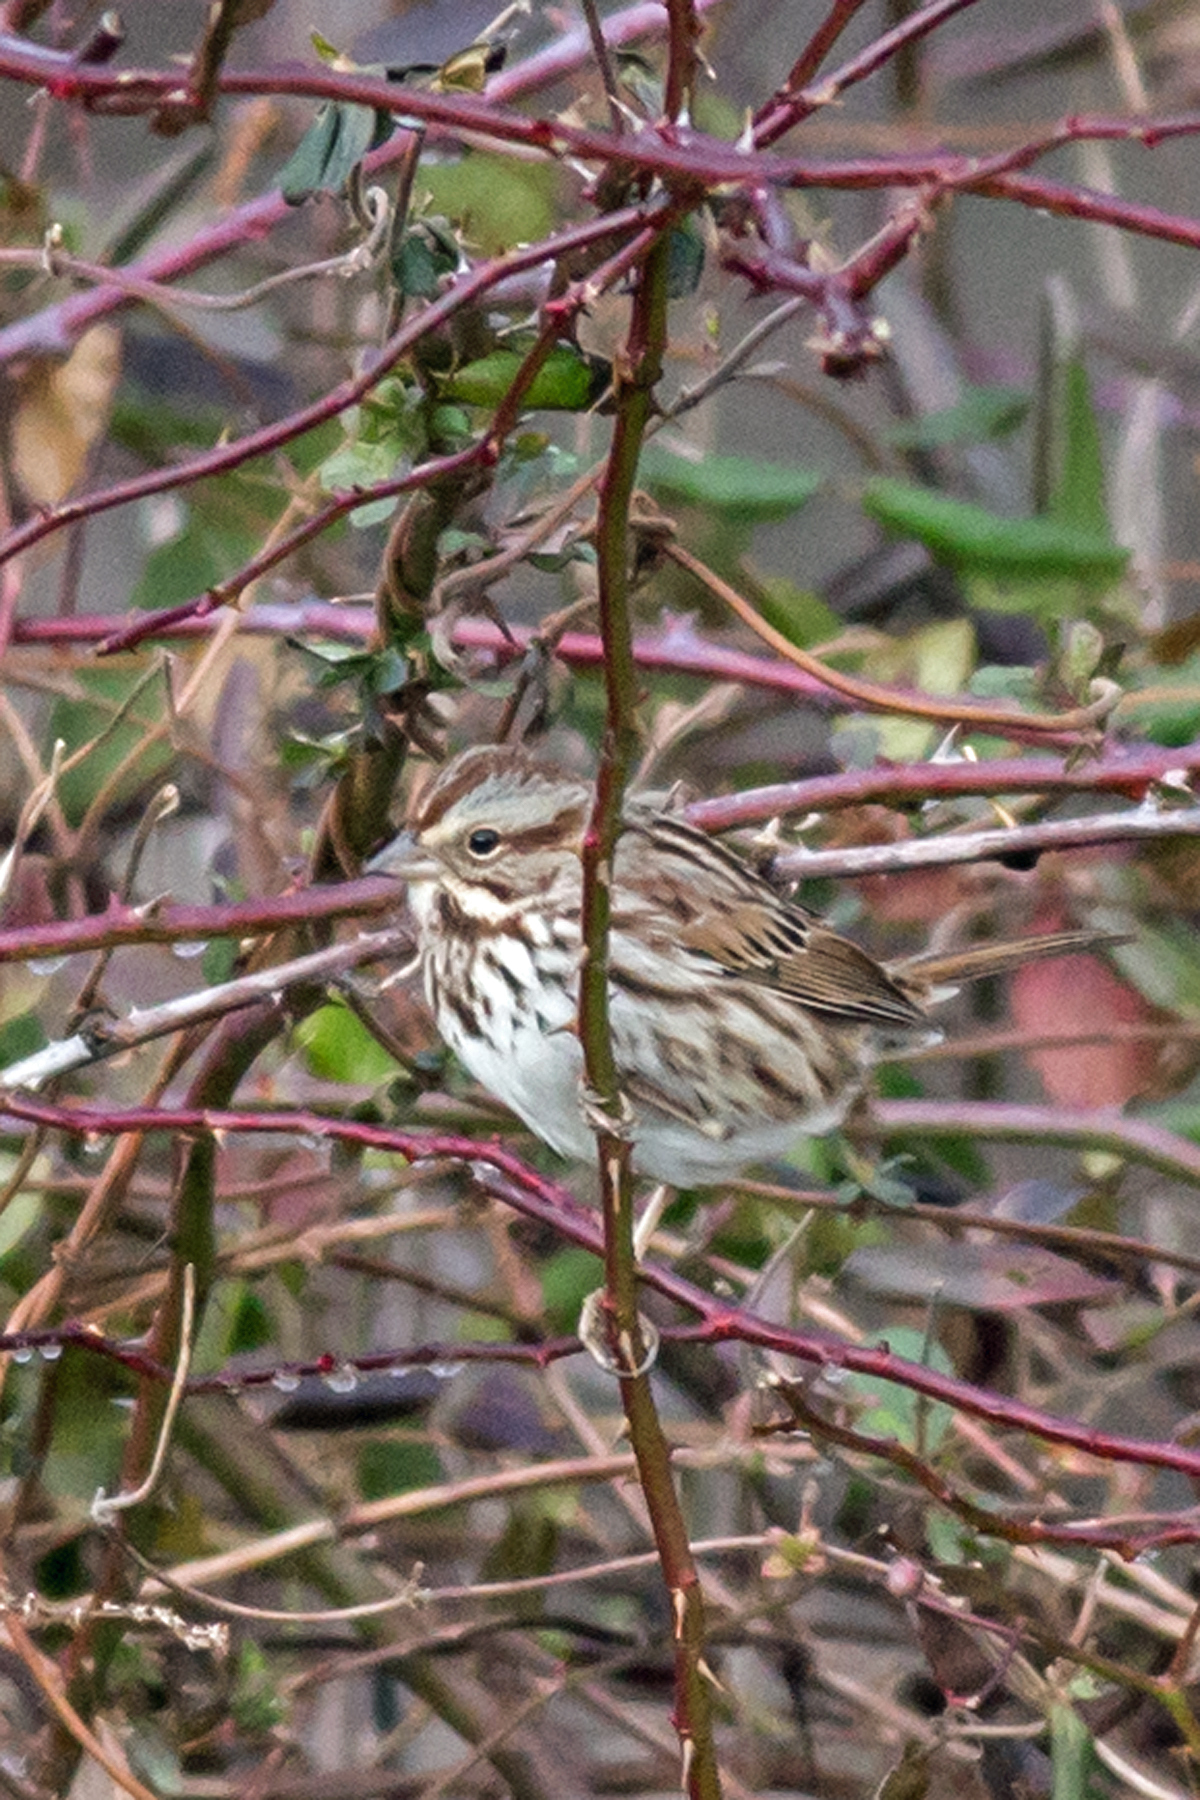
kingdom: Animalia
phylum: Chordata
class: Aves
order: Passeriformes
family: Passerellidae
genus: Melospiza
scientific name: Melospiza melodia
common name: Song sparrow
